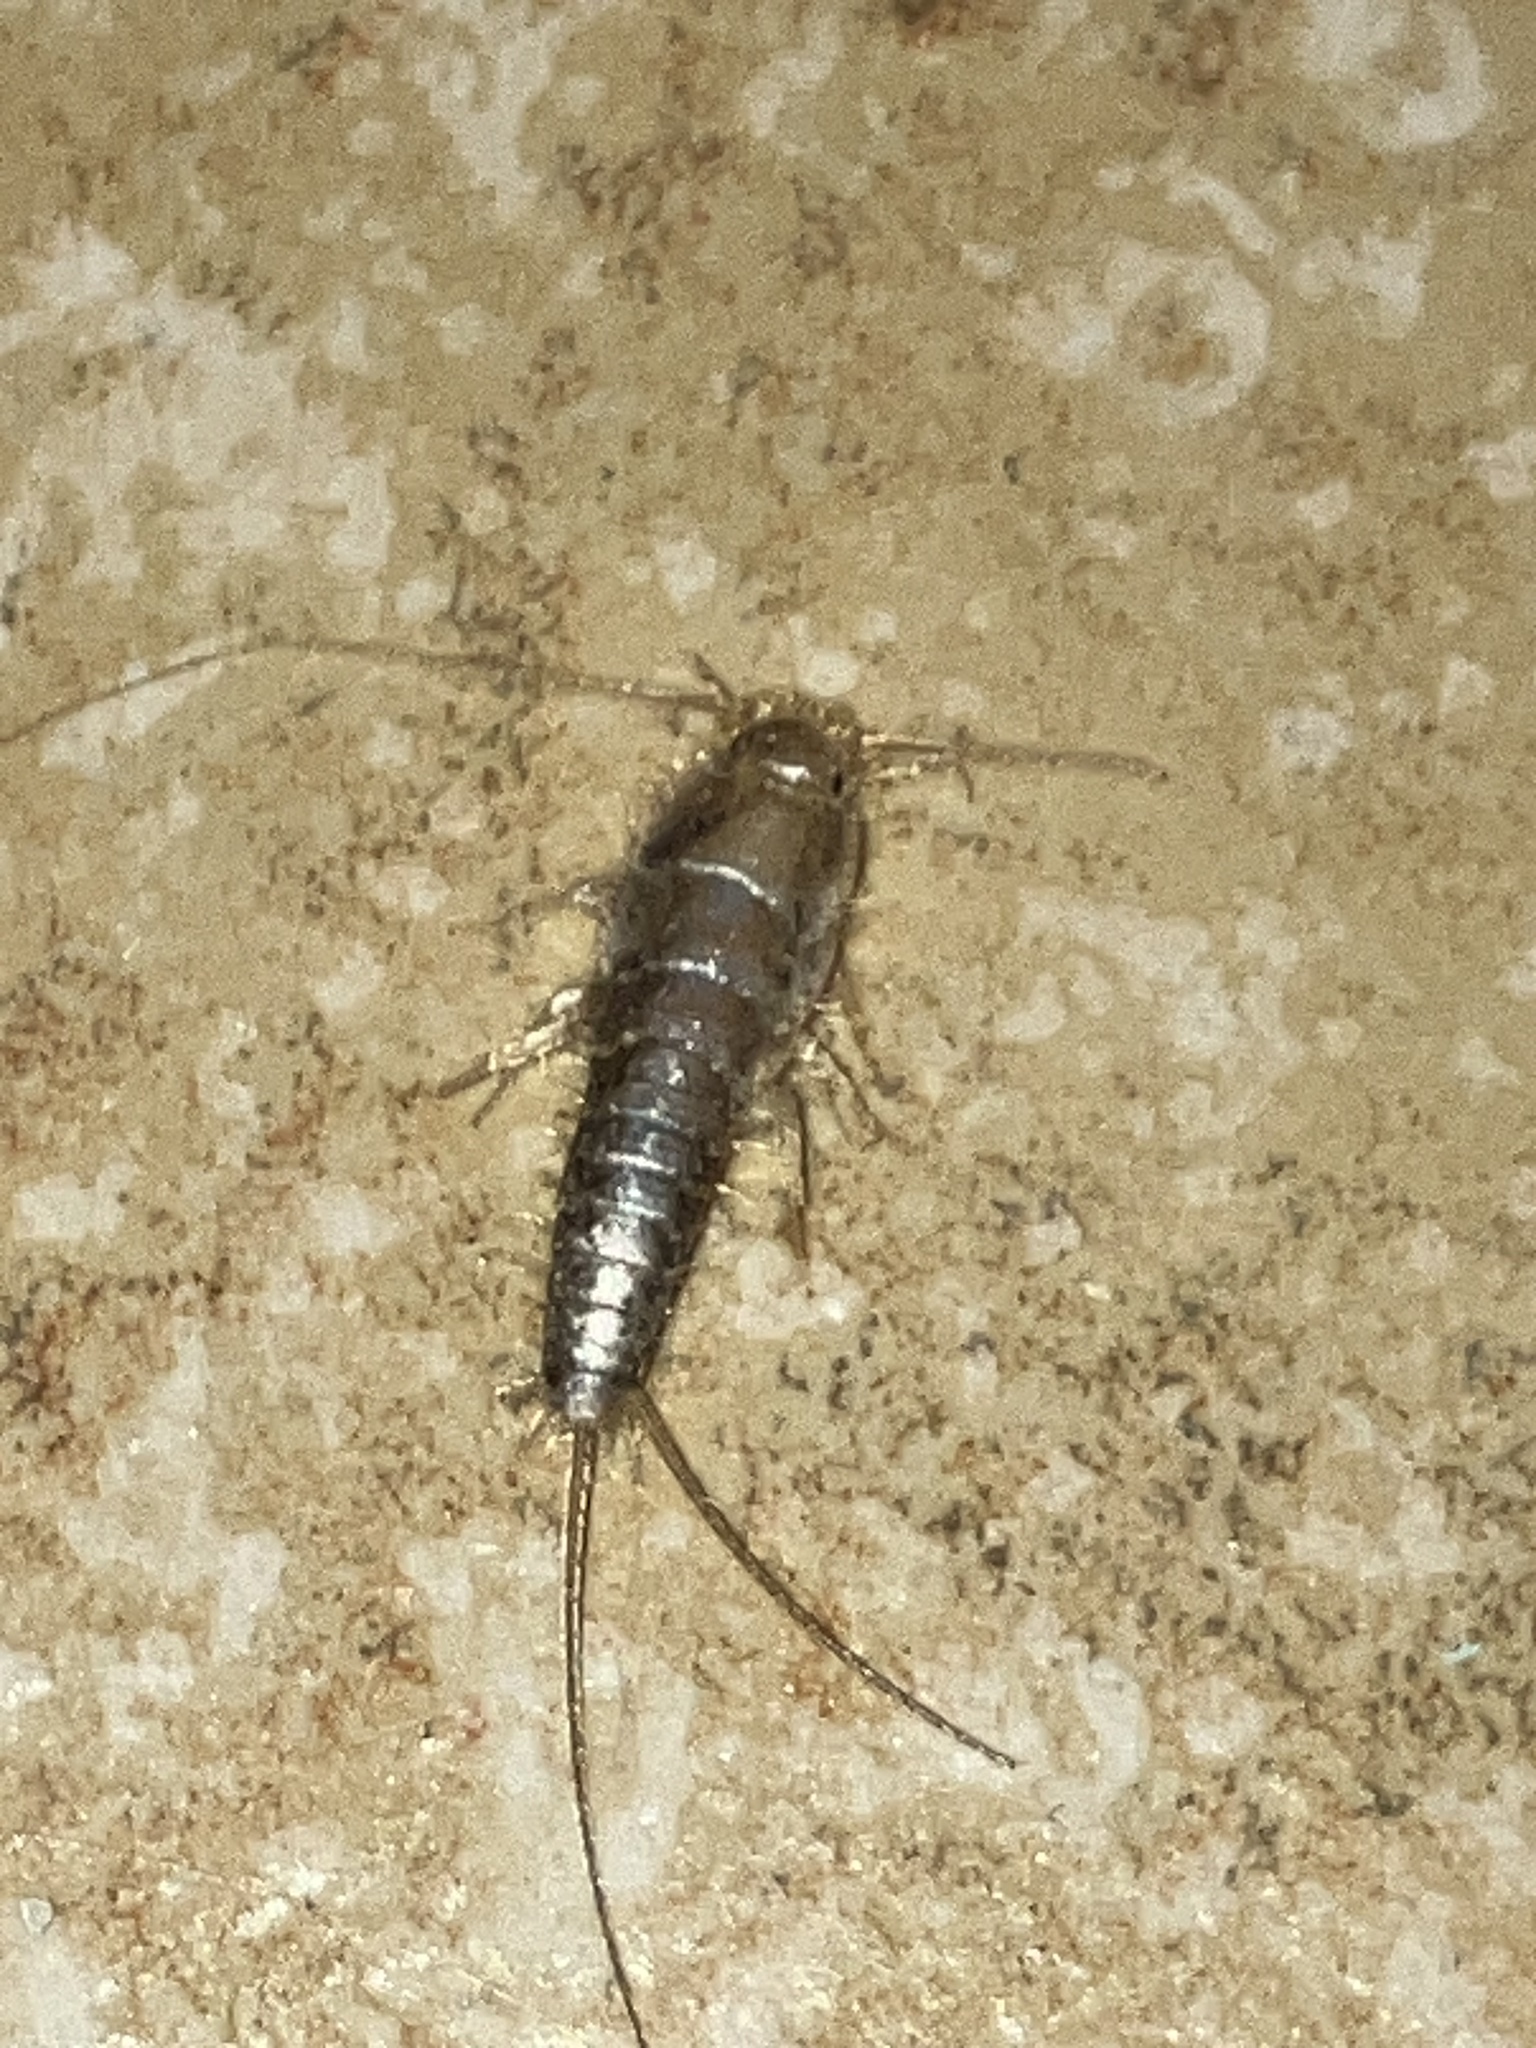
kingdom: Animalia
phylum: Arthropoda
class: Insecta
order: Zygentoma
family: Lepismatidae
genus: Ctenolepisma
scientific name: Ctenolepisma longicaudatum
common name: Silverfish
